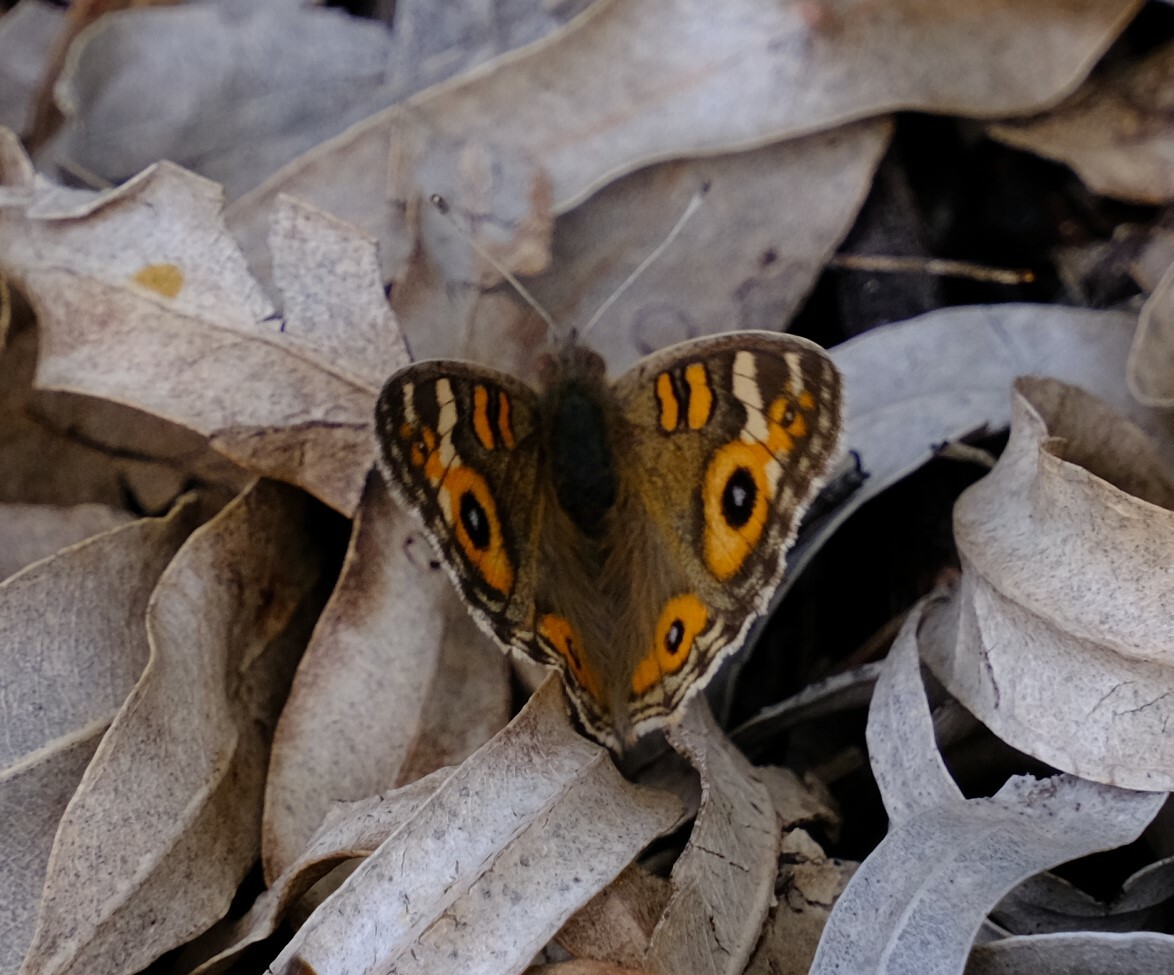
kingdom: Animalia
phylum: Arthropoda
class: Insecta
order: Lepidoptera
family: Nymphalidae
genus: Junonia
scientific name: Junonia villida
